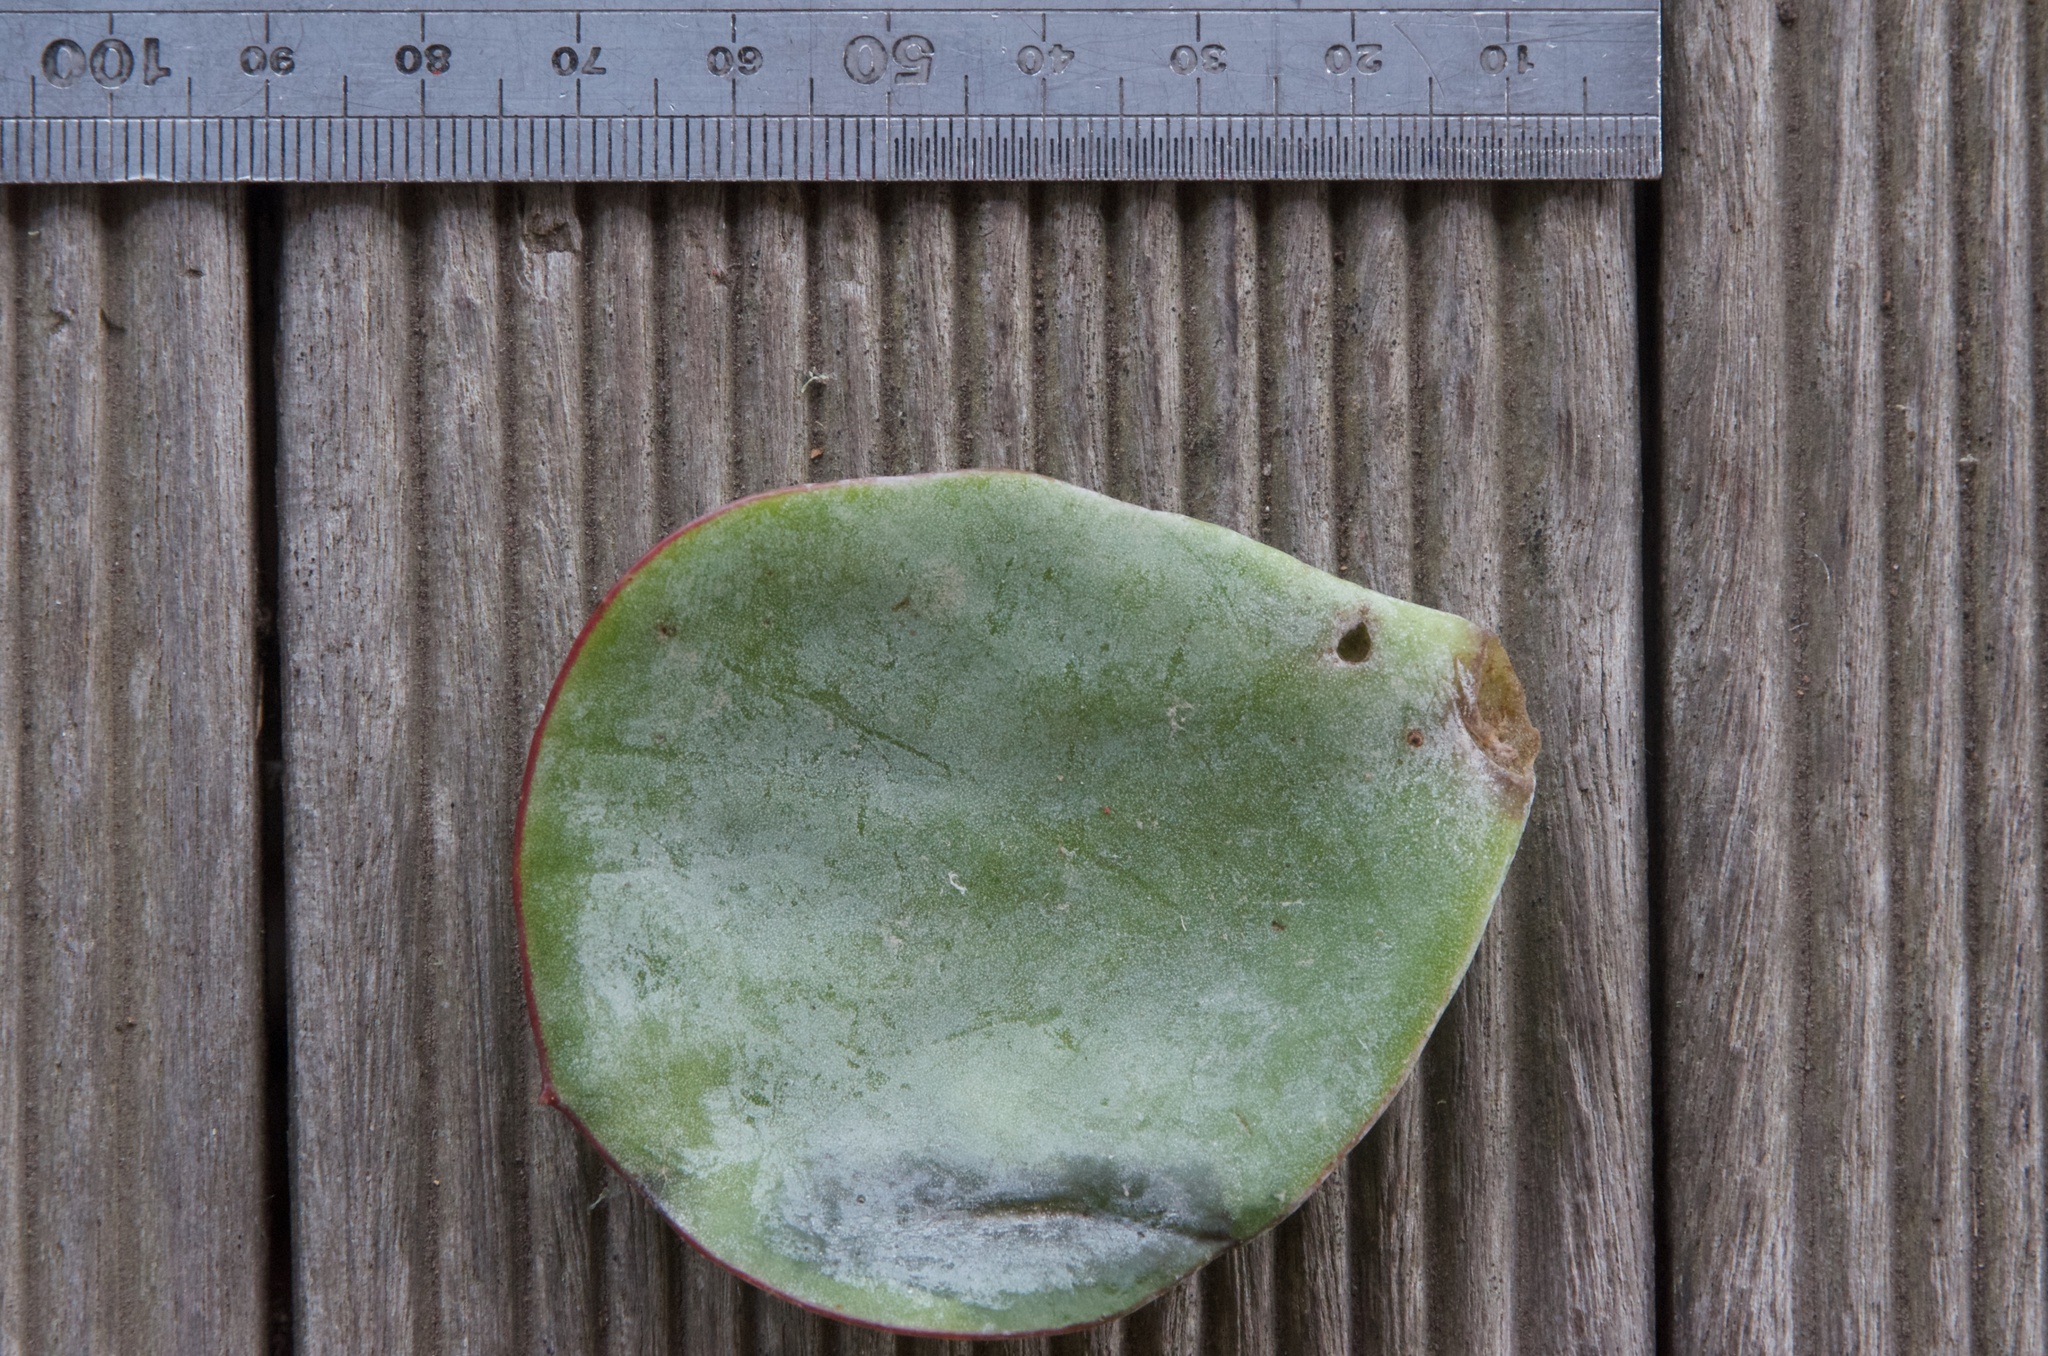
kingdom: Plantae
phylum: Tracheophyta
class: Magnoliopsida
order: Saxifragales
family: Crassulaceae
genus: Cotyledon
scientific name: Cotyledon orbiculata
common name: Pig's ear
